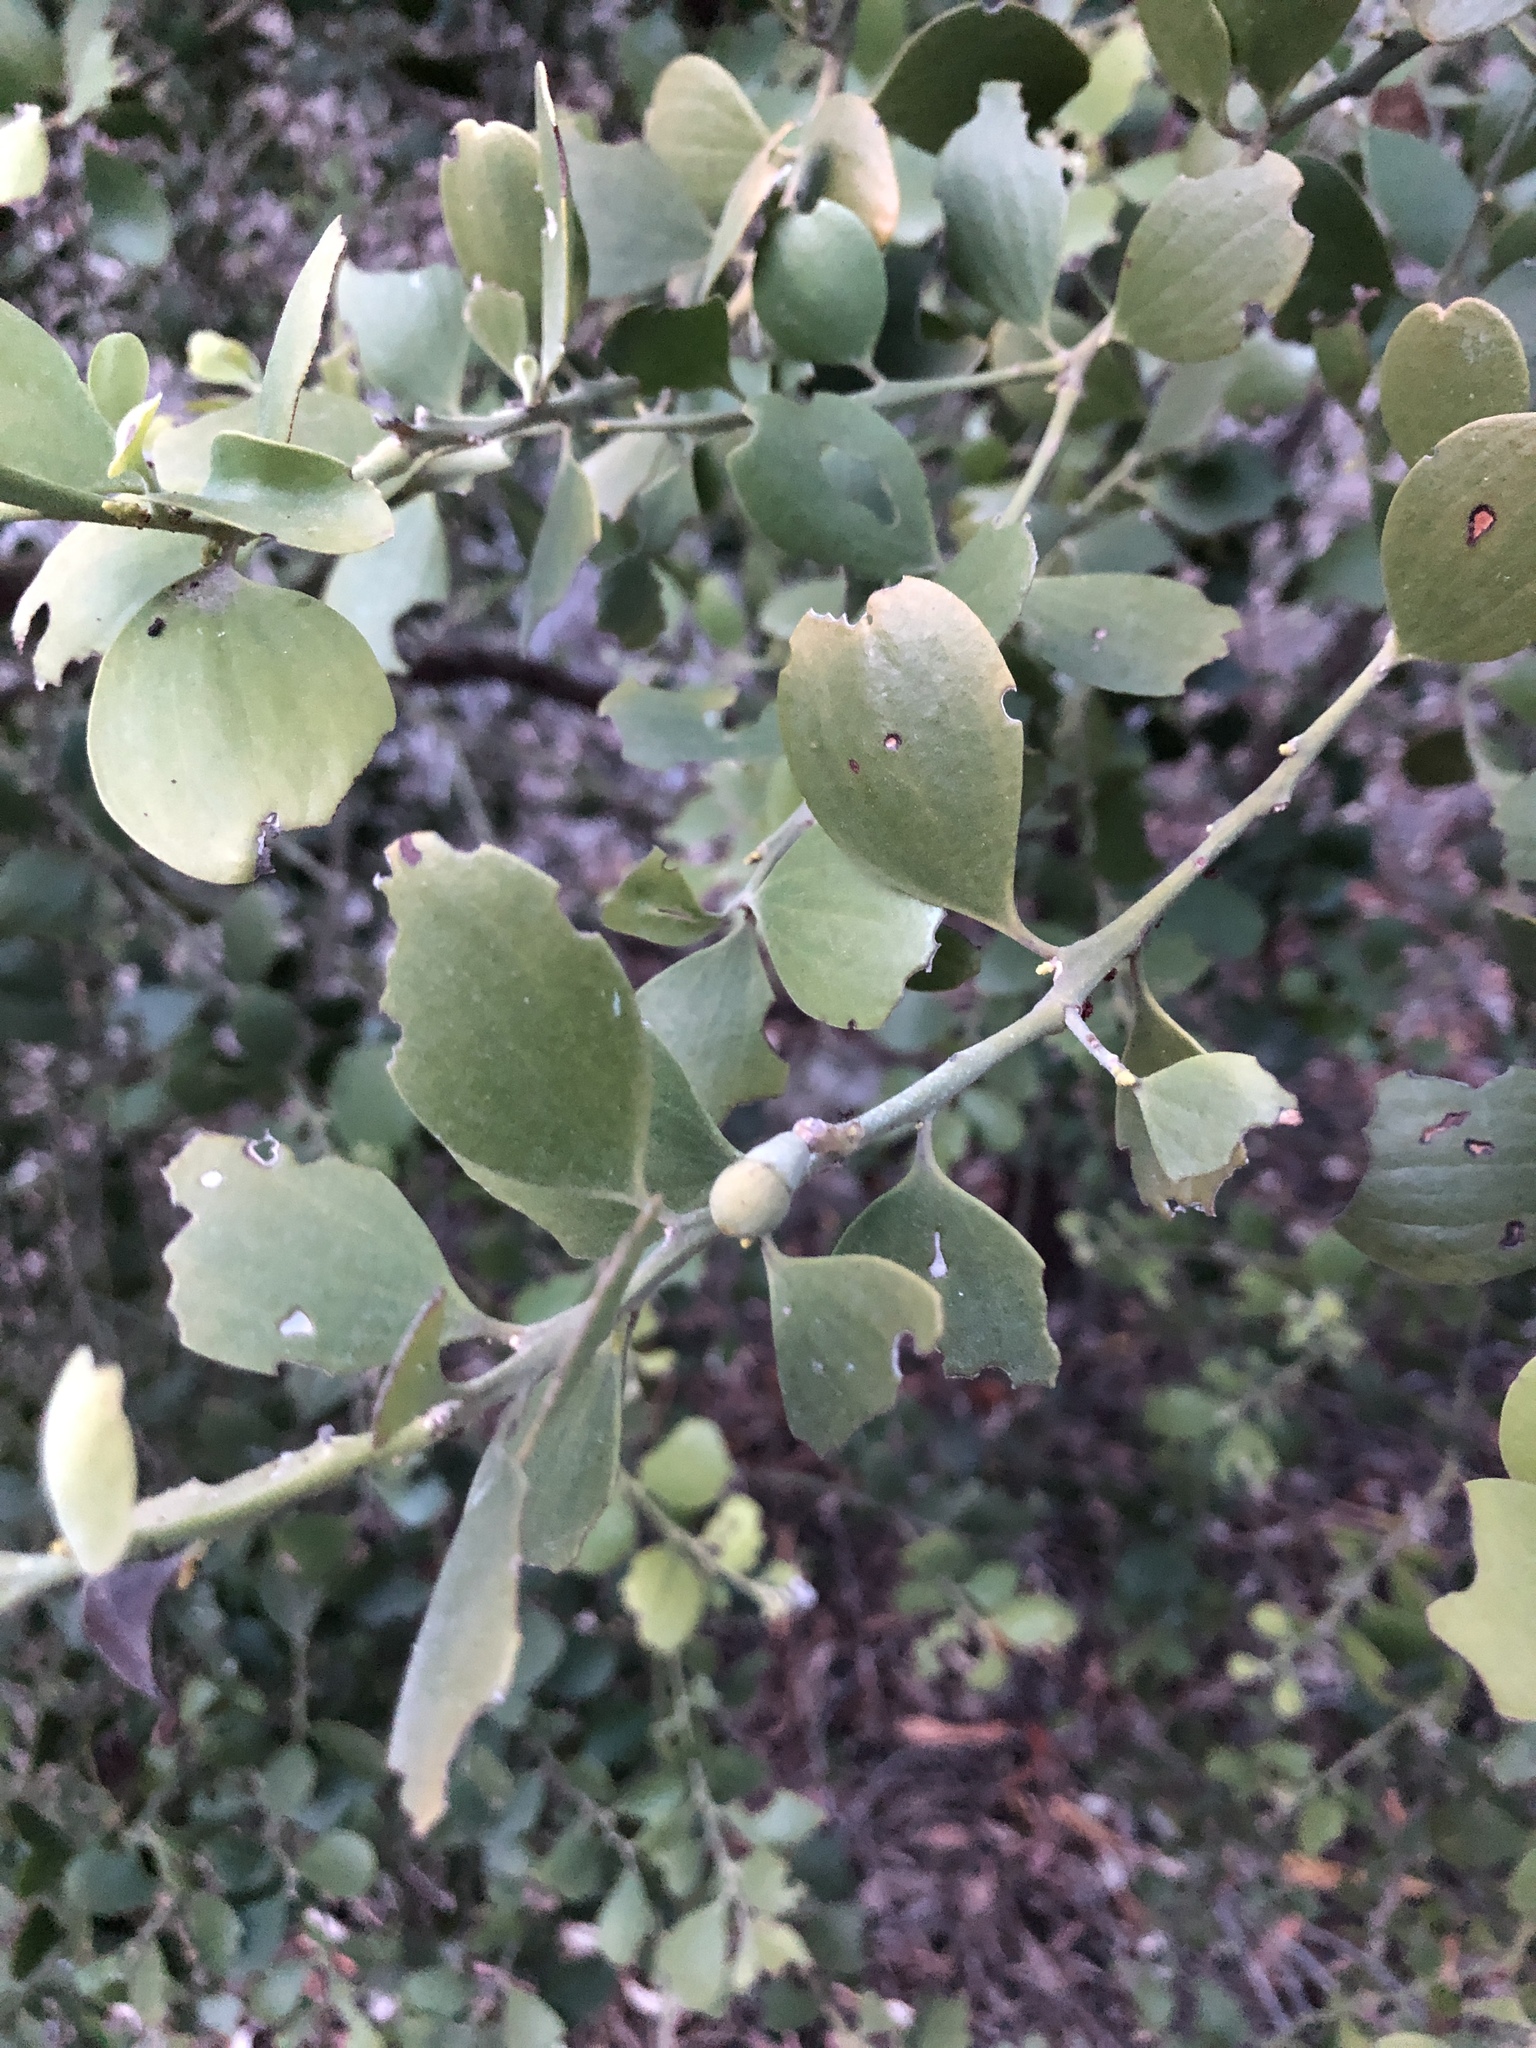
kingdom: Plantae
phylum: Tracheophyta
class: Magnoliopsida
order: Santalales
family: Santalaceae
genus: Exocarpos
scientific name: Exocarpos latifolius
